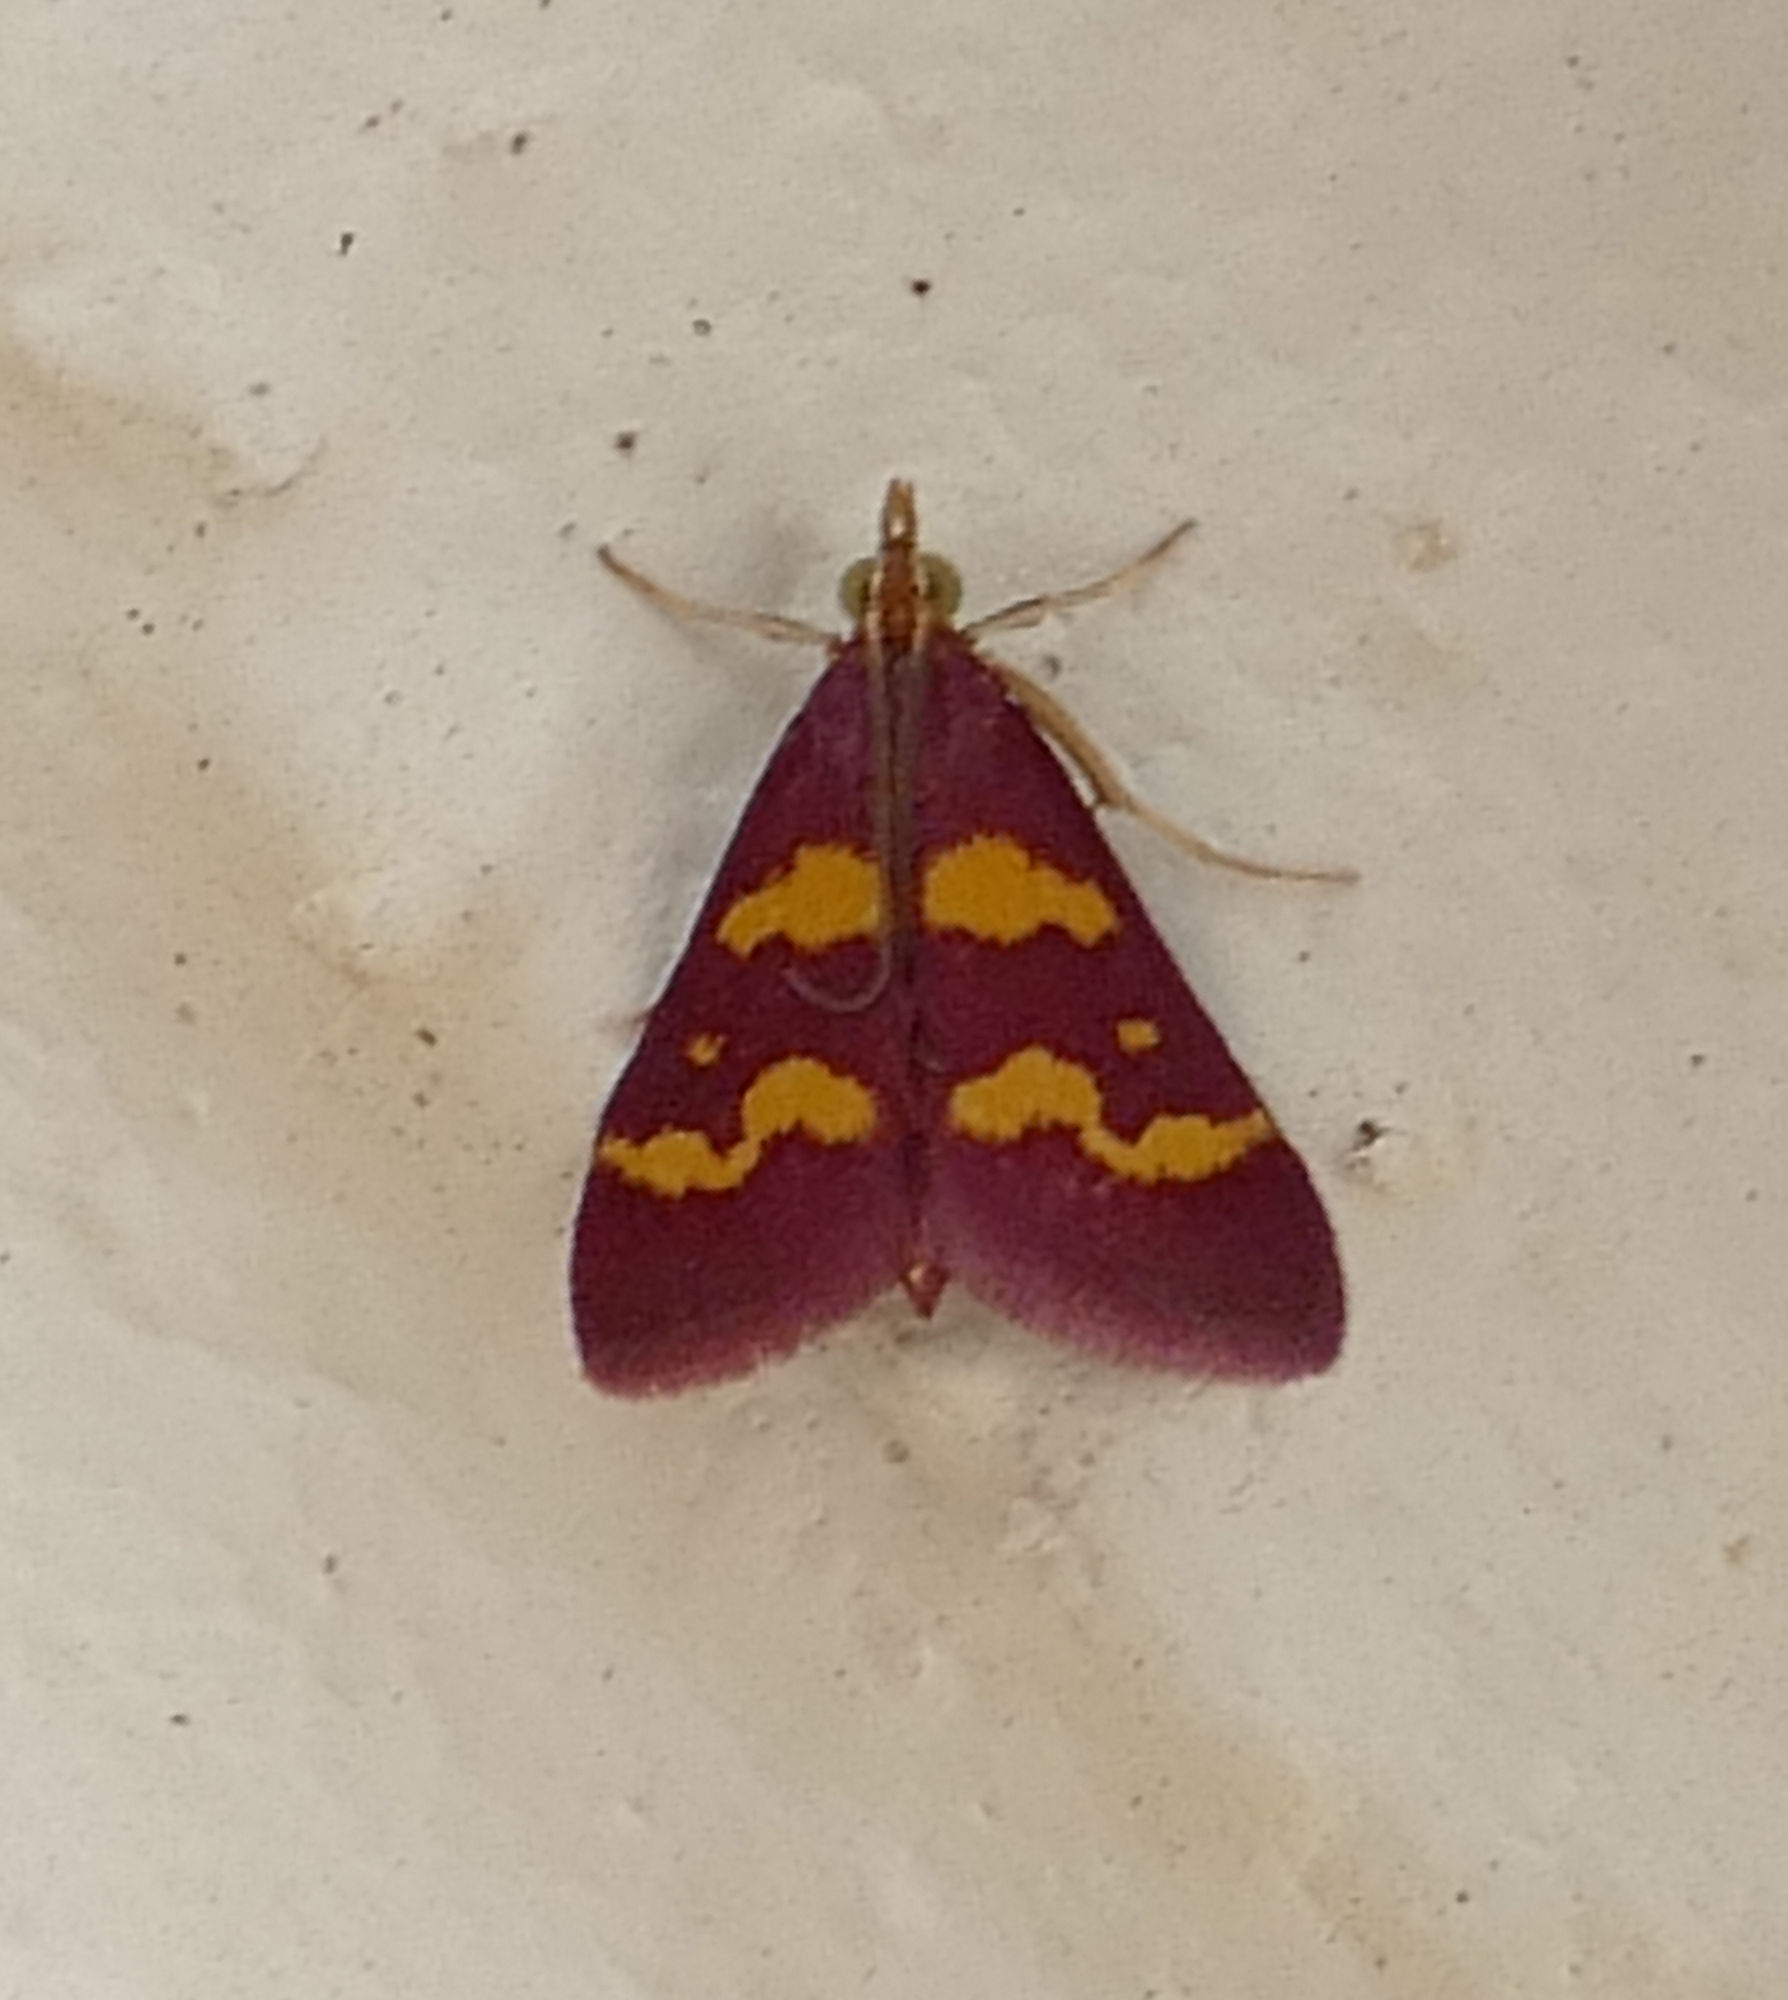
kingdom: Animalia
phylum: Arthropoda
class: Insecta
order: Lepidoptera
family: Crambidae
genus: Pyrausta
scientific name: Pyrausta tyralis
